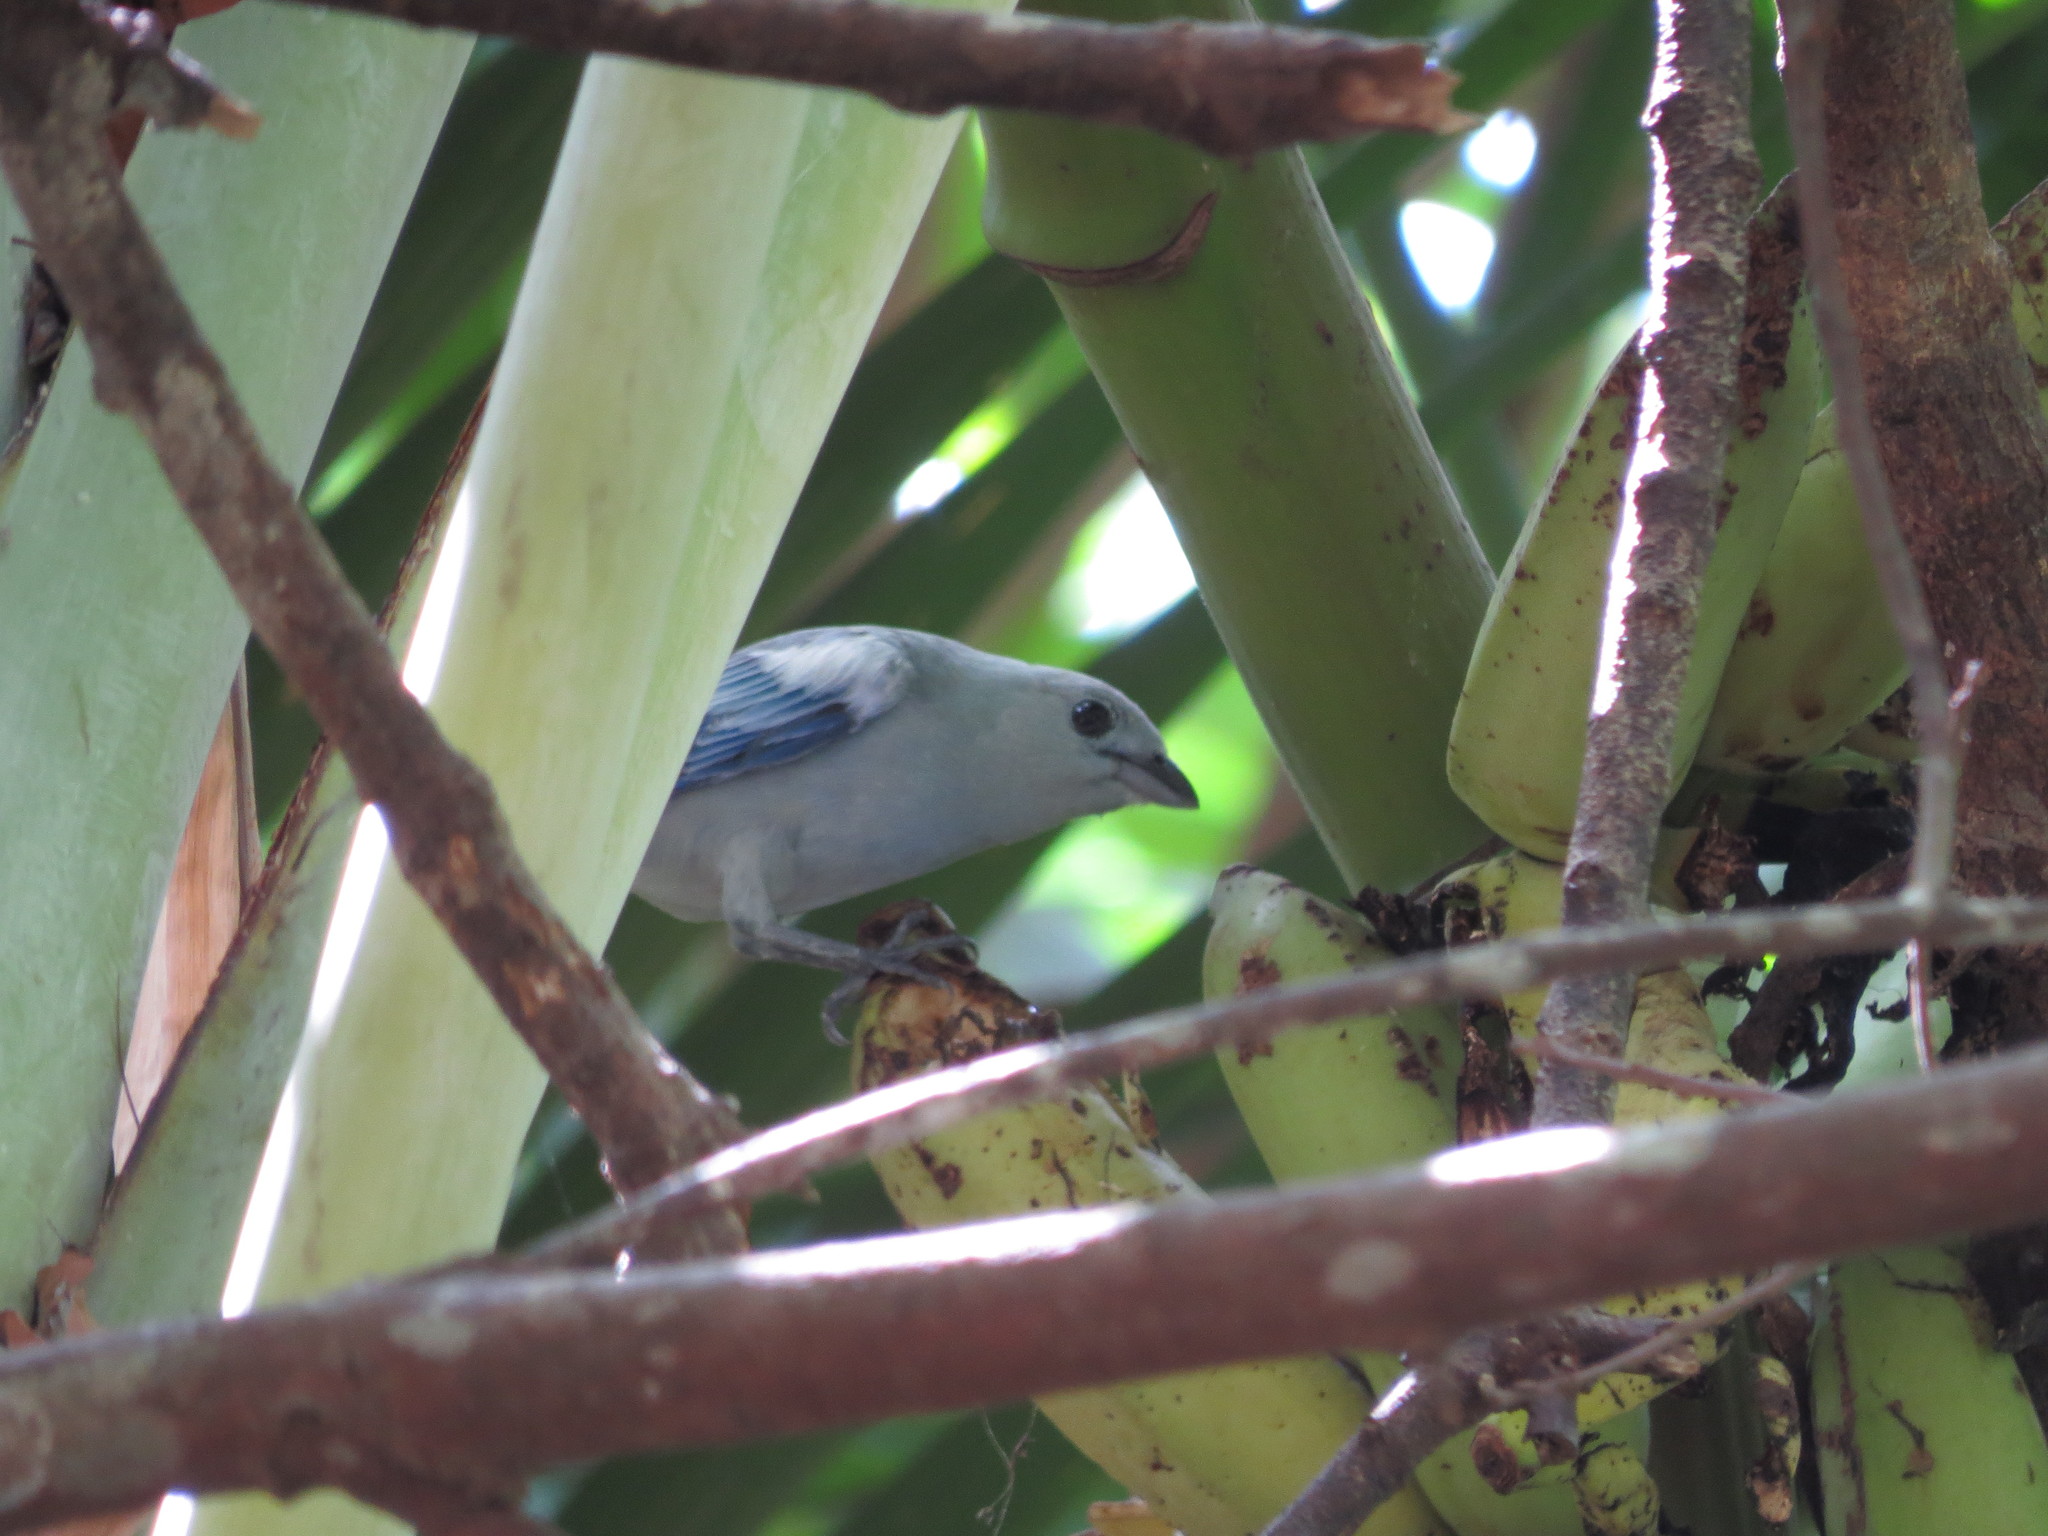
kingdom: Animalia
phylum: Chordata
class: Aves
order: Passeriformes
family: Thraupidae
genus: Thraupis
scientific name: Thraupis episcopus
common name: Blue-grey tanager
